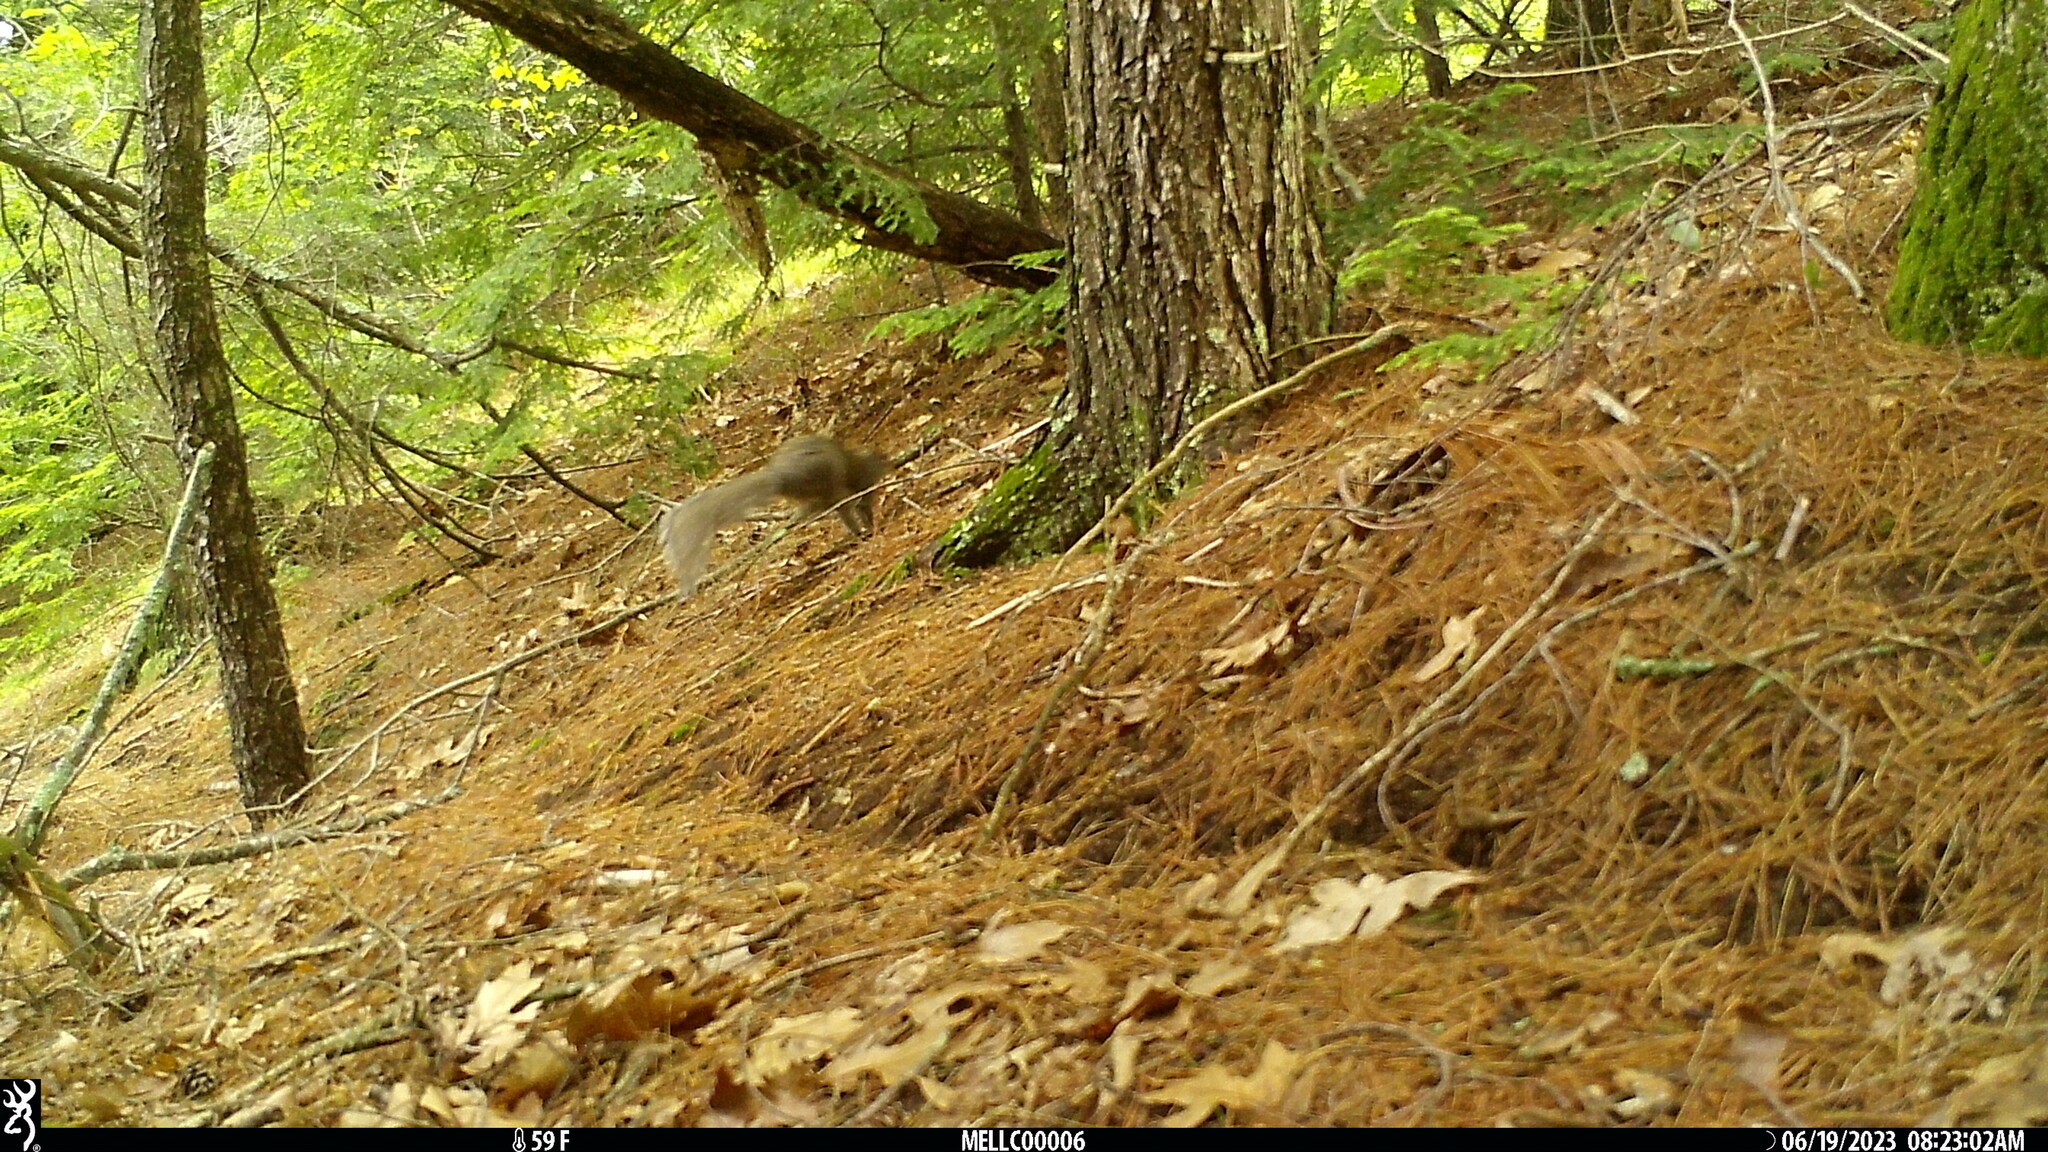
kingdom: Animalia
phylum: Chordata
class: Mammalia
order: Rodentia
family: Sciuridae
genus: Sciurus
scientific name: Sciurus carolinensis
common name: Eastern gray squirrel
